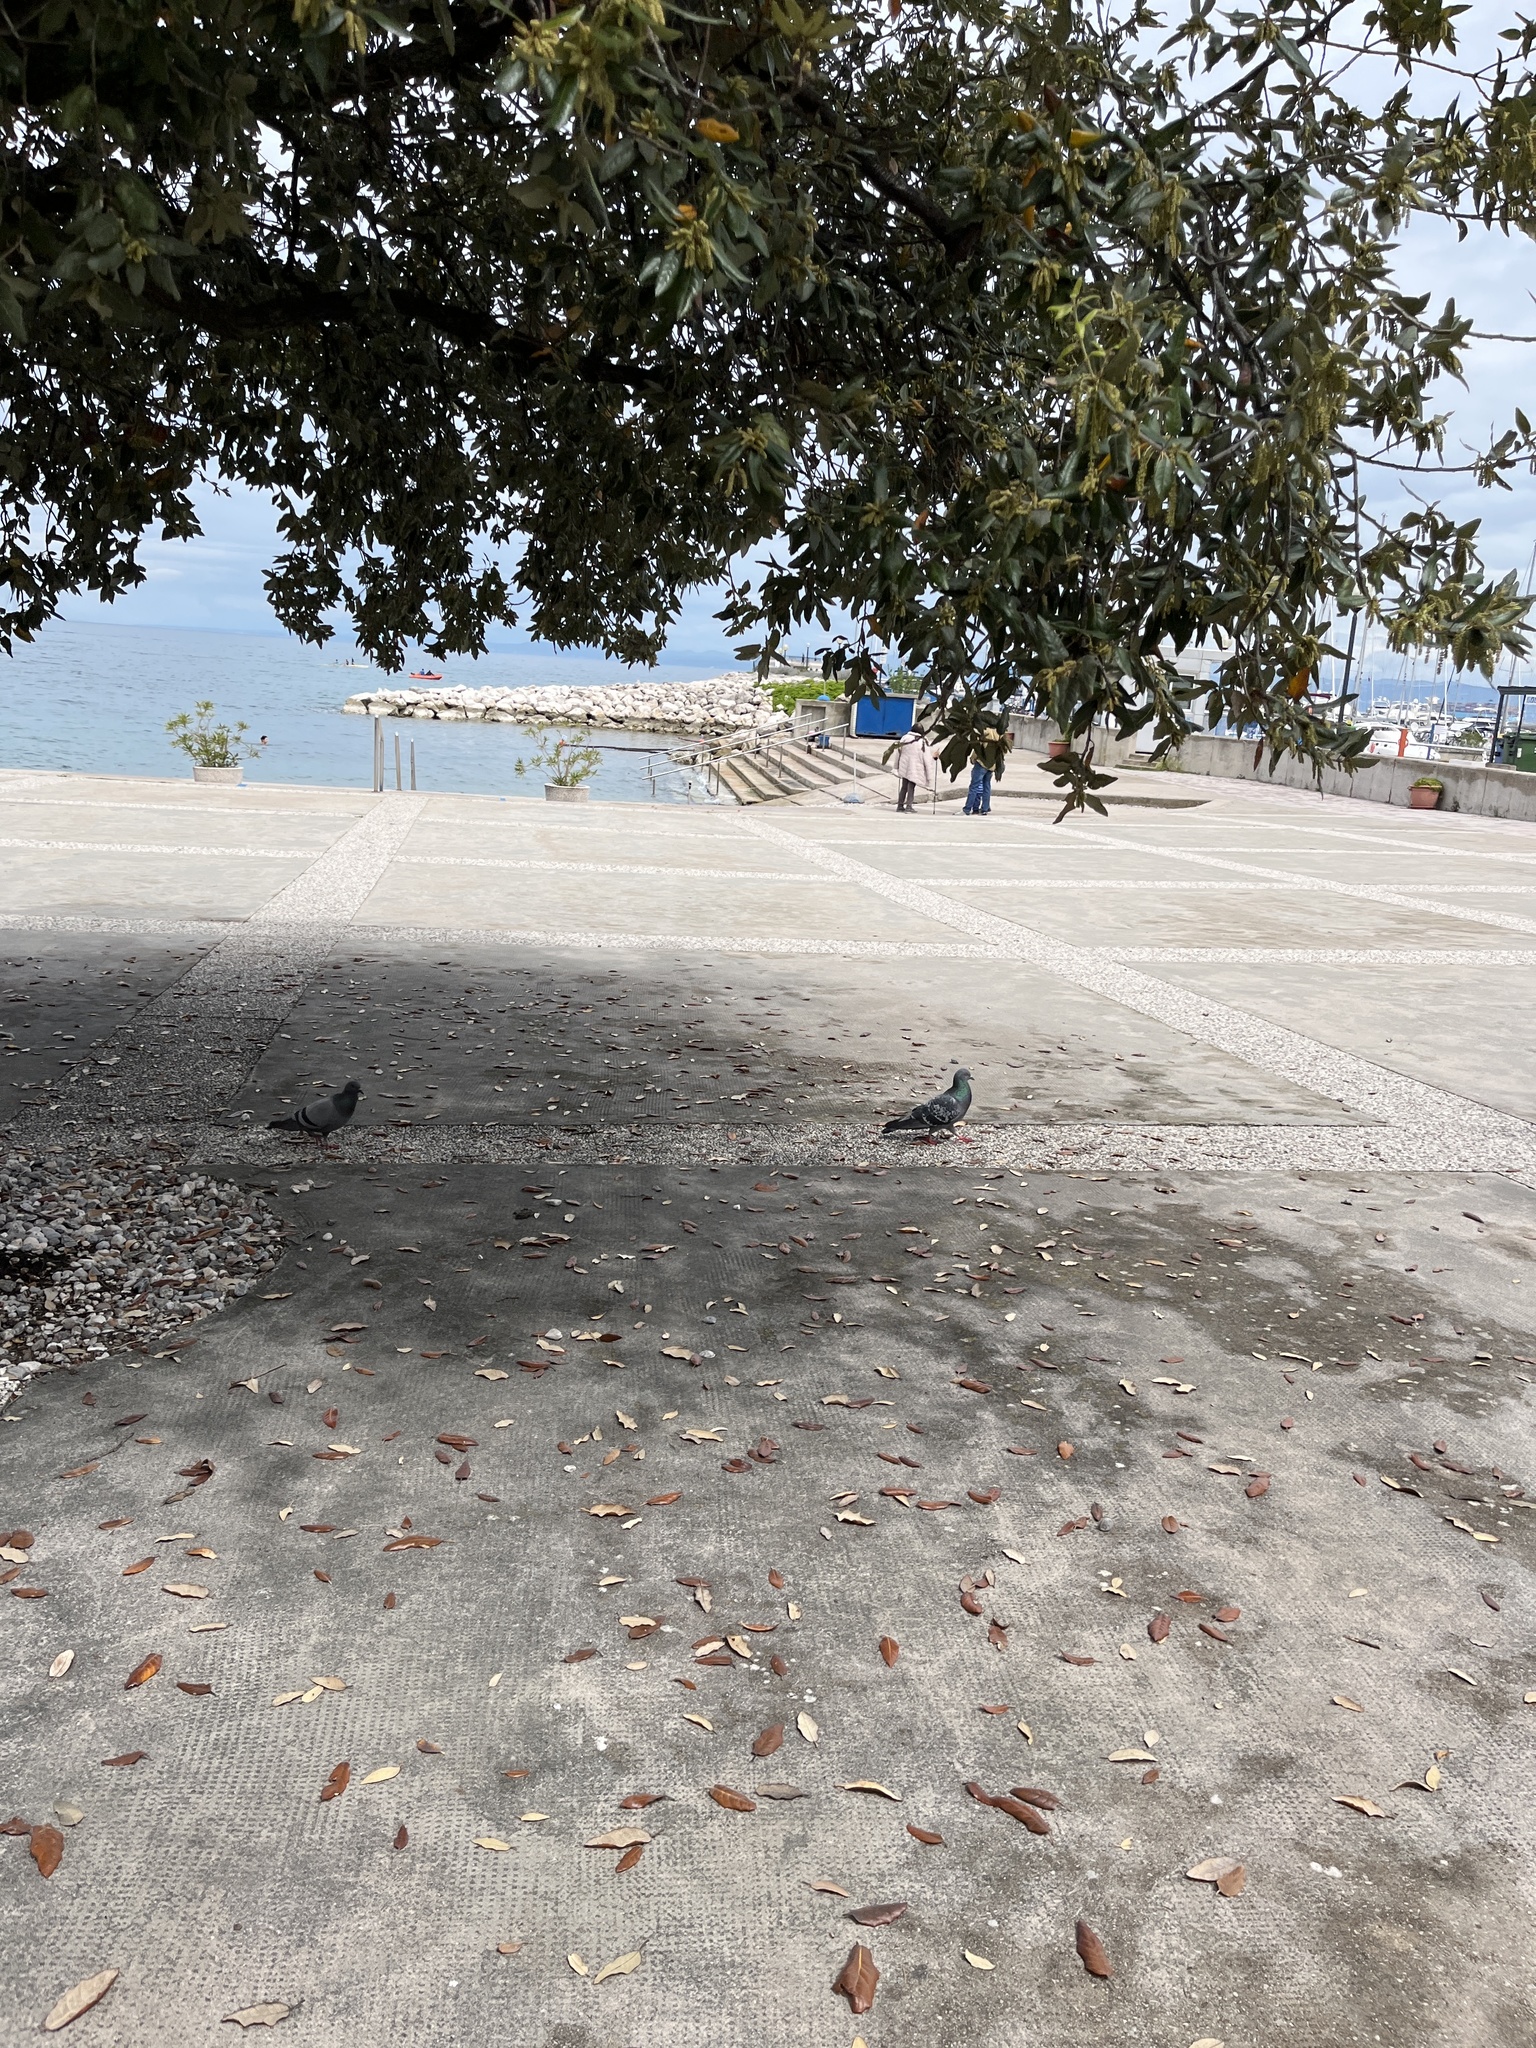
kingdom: Animalia
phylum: Chordata
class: Aves
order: Columbiformes
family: Columbidae
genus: Columba
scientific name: Columba livia
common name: Rock pigeon
